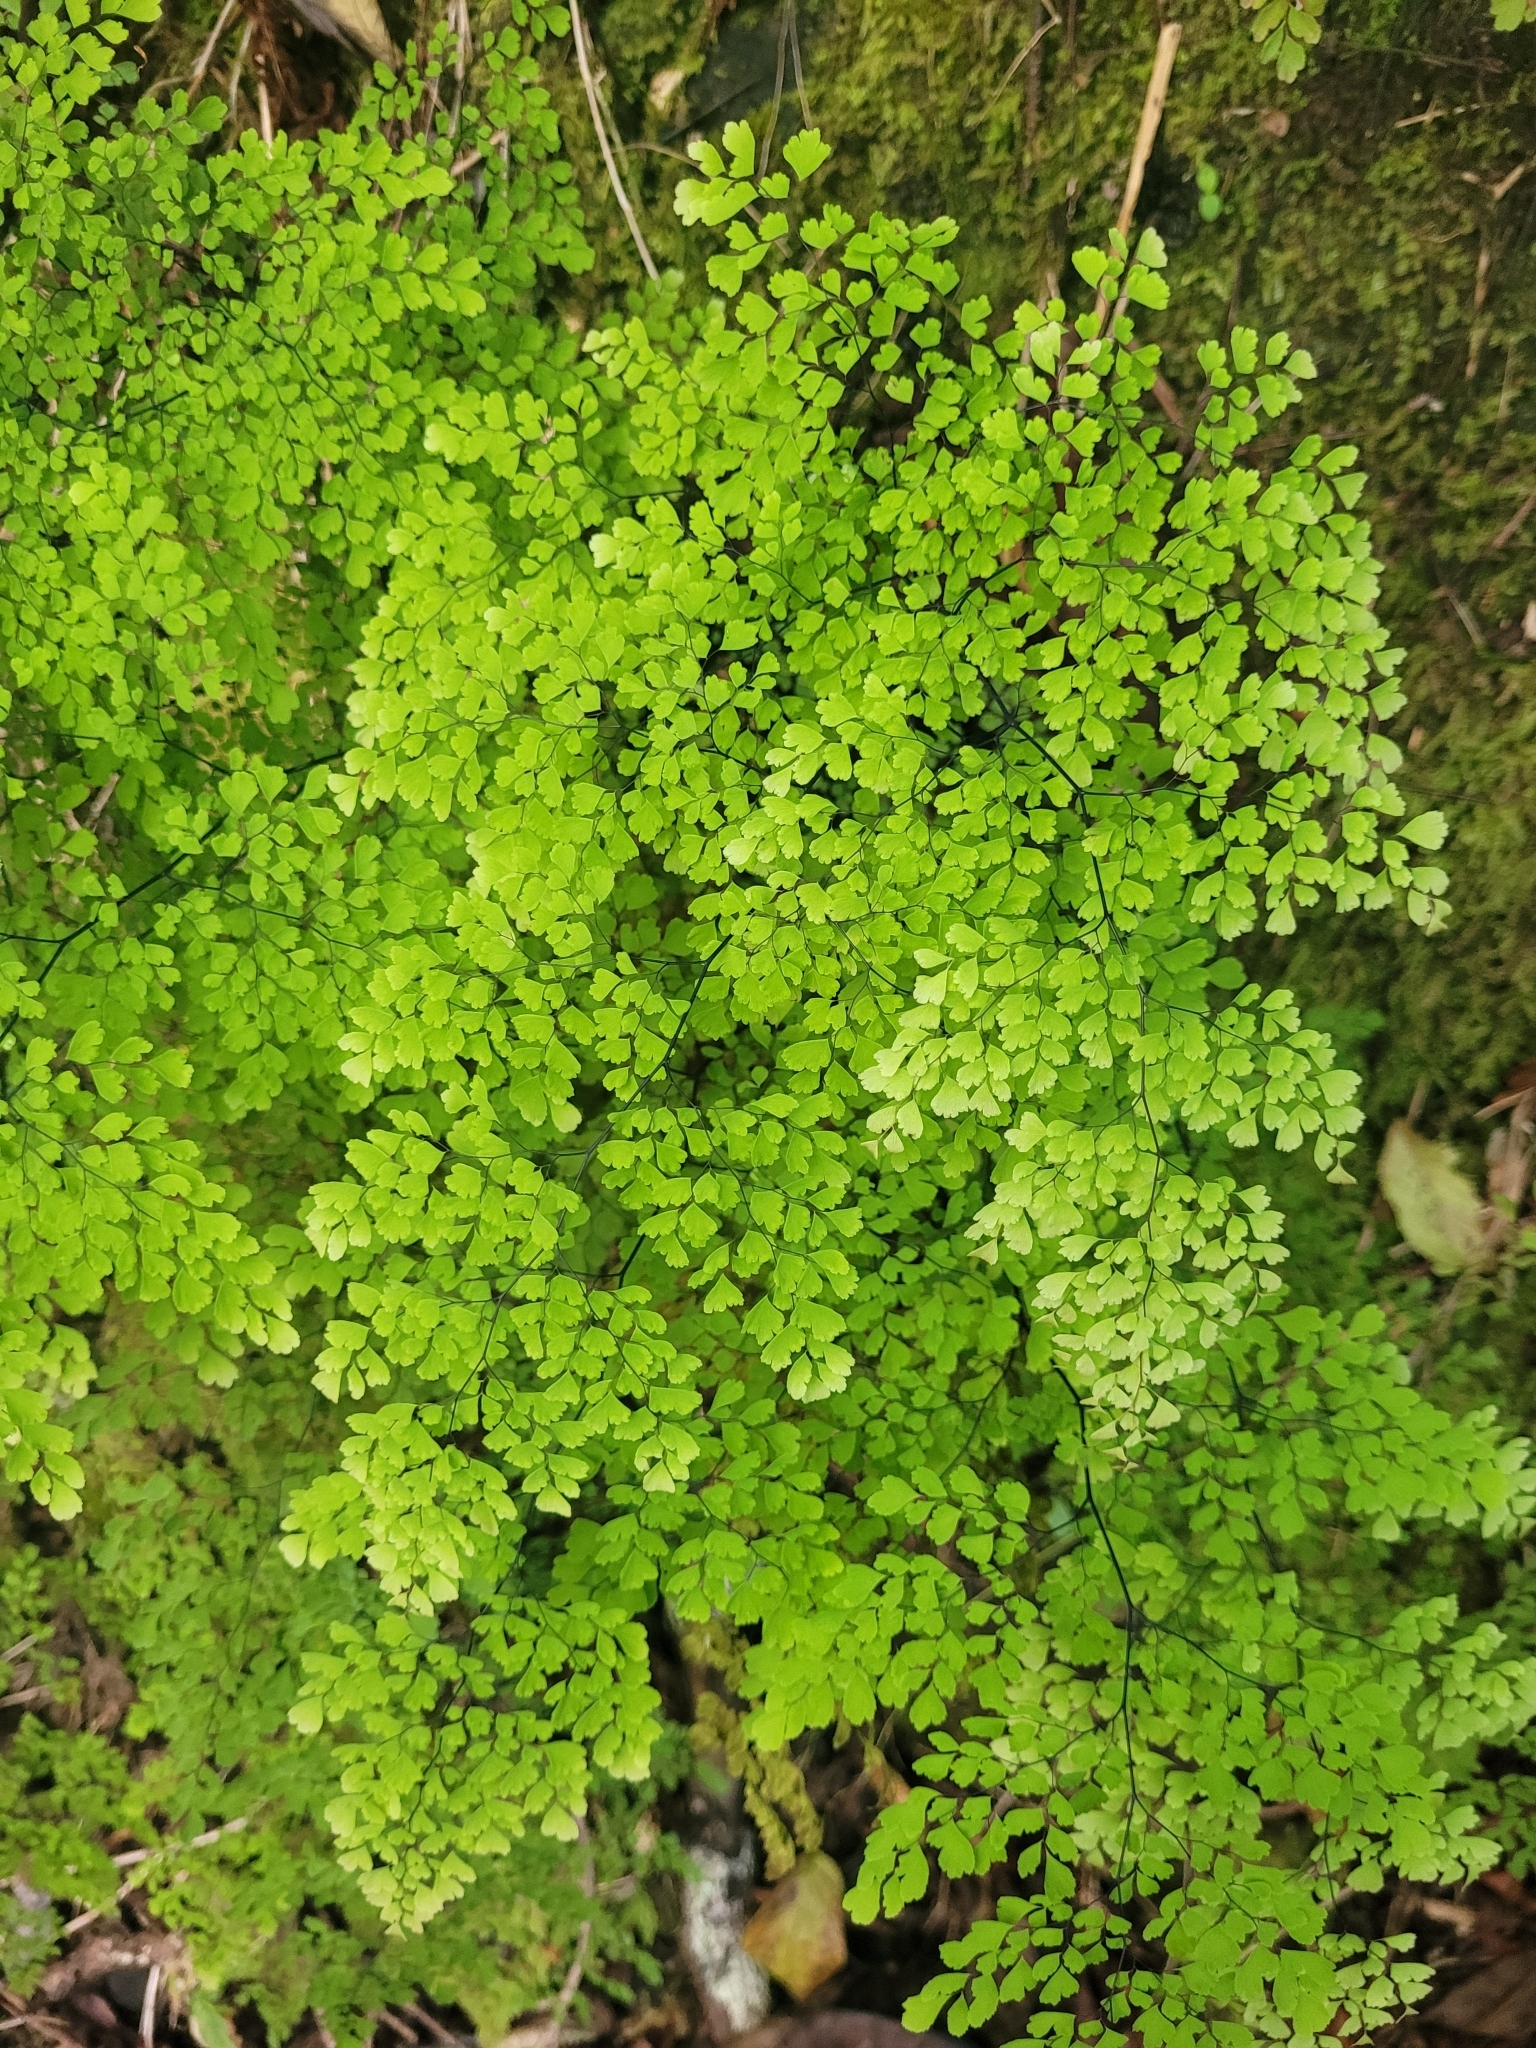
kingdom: Plantae
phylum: Tracheophyta
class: Polypodiopsida
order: Polypodiales
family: Pteridaceae
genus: Adiantum
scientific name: Adiantum raddianum
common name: Delta maidenhair fern
